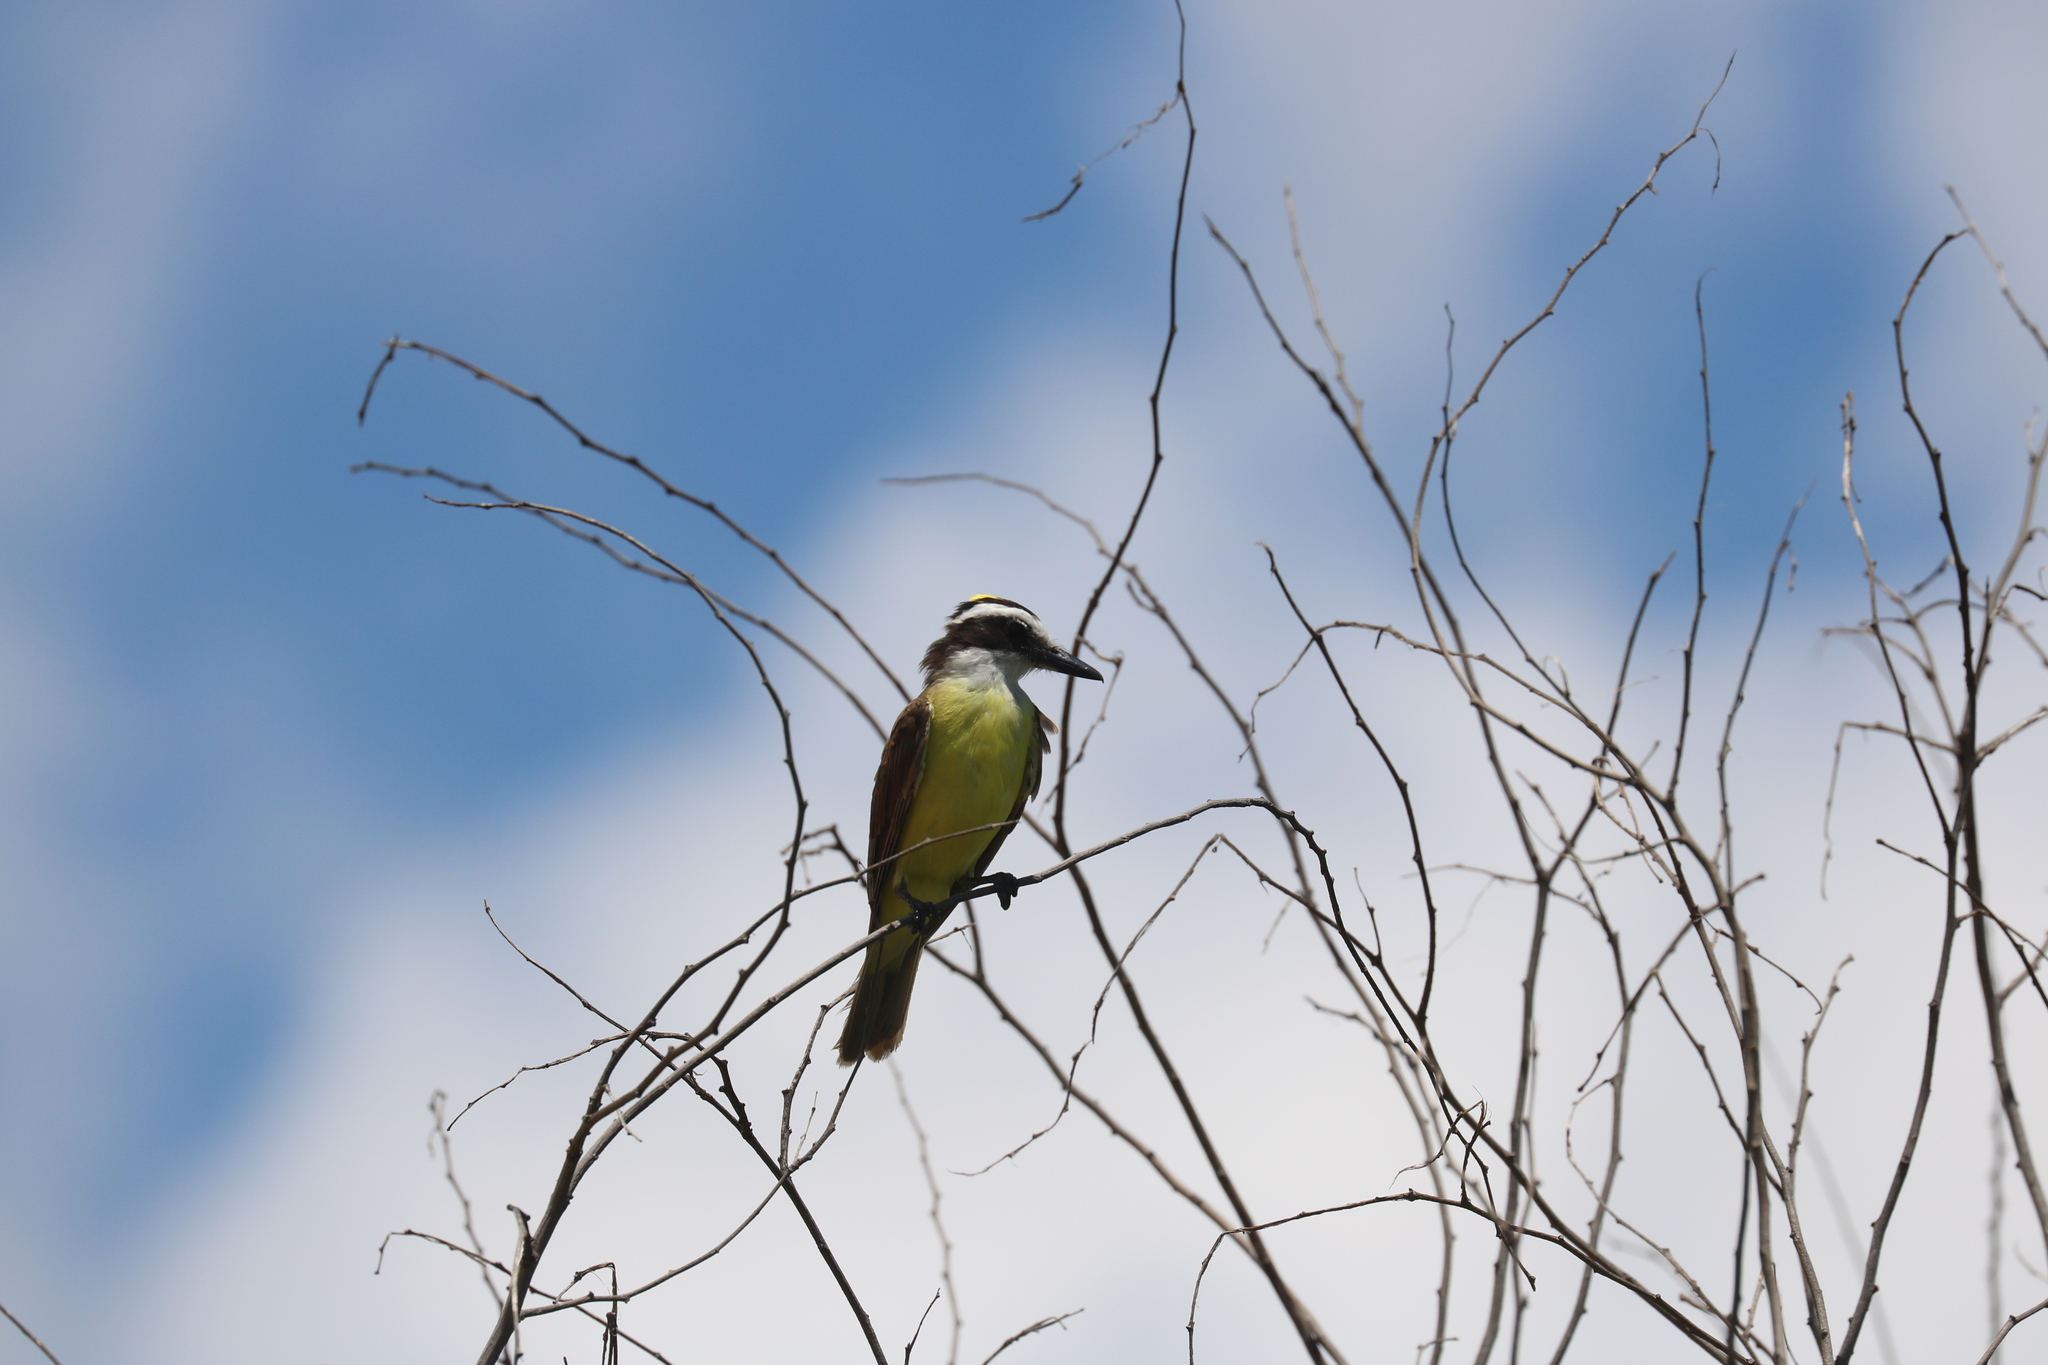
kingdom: Animalia
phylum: Chordata
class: Aves
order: Passeriformes
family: Tyrannidae
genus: Pitangus
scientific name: Pitangus sulphuratus
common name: Great kiskadee
